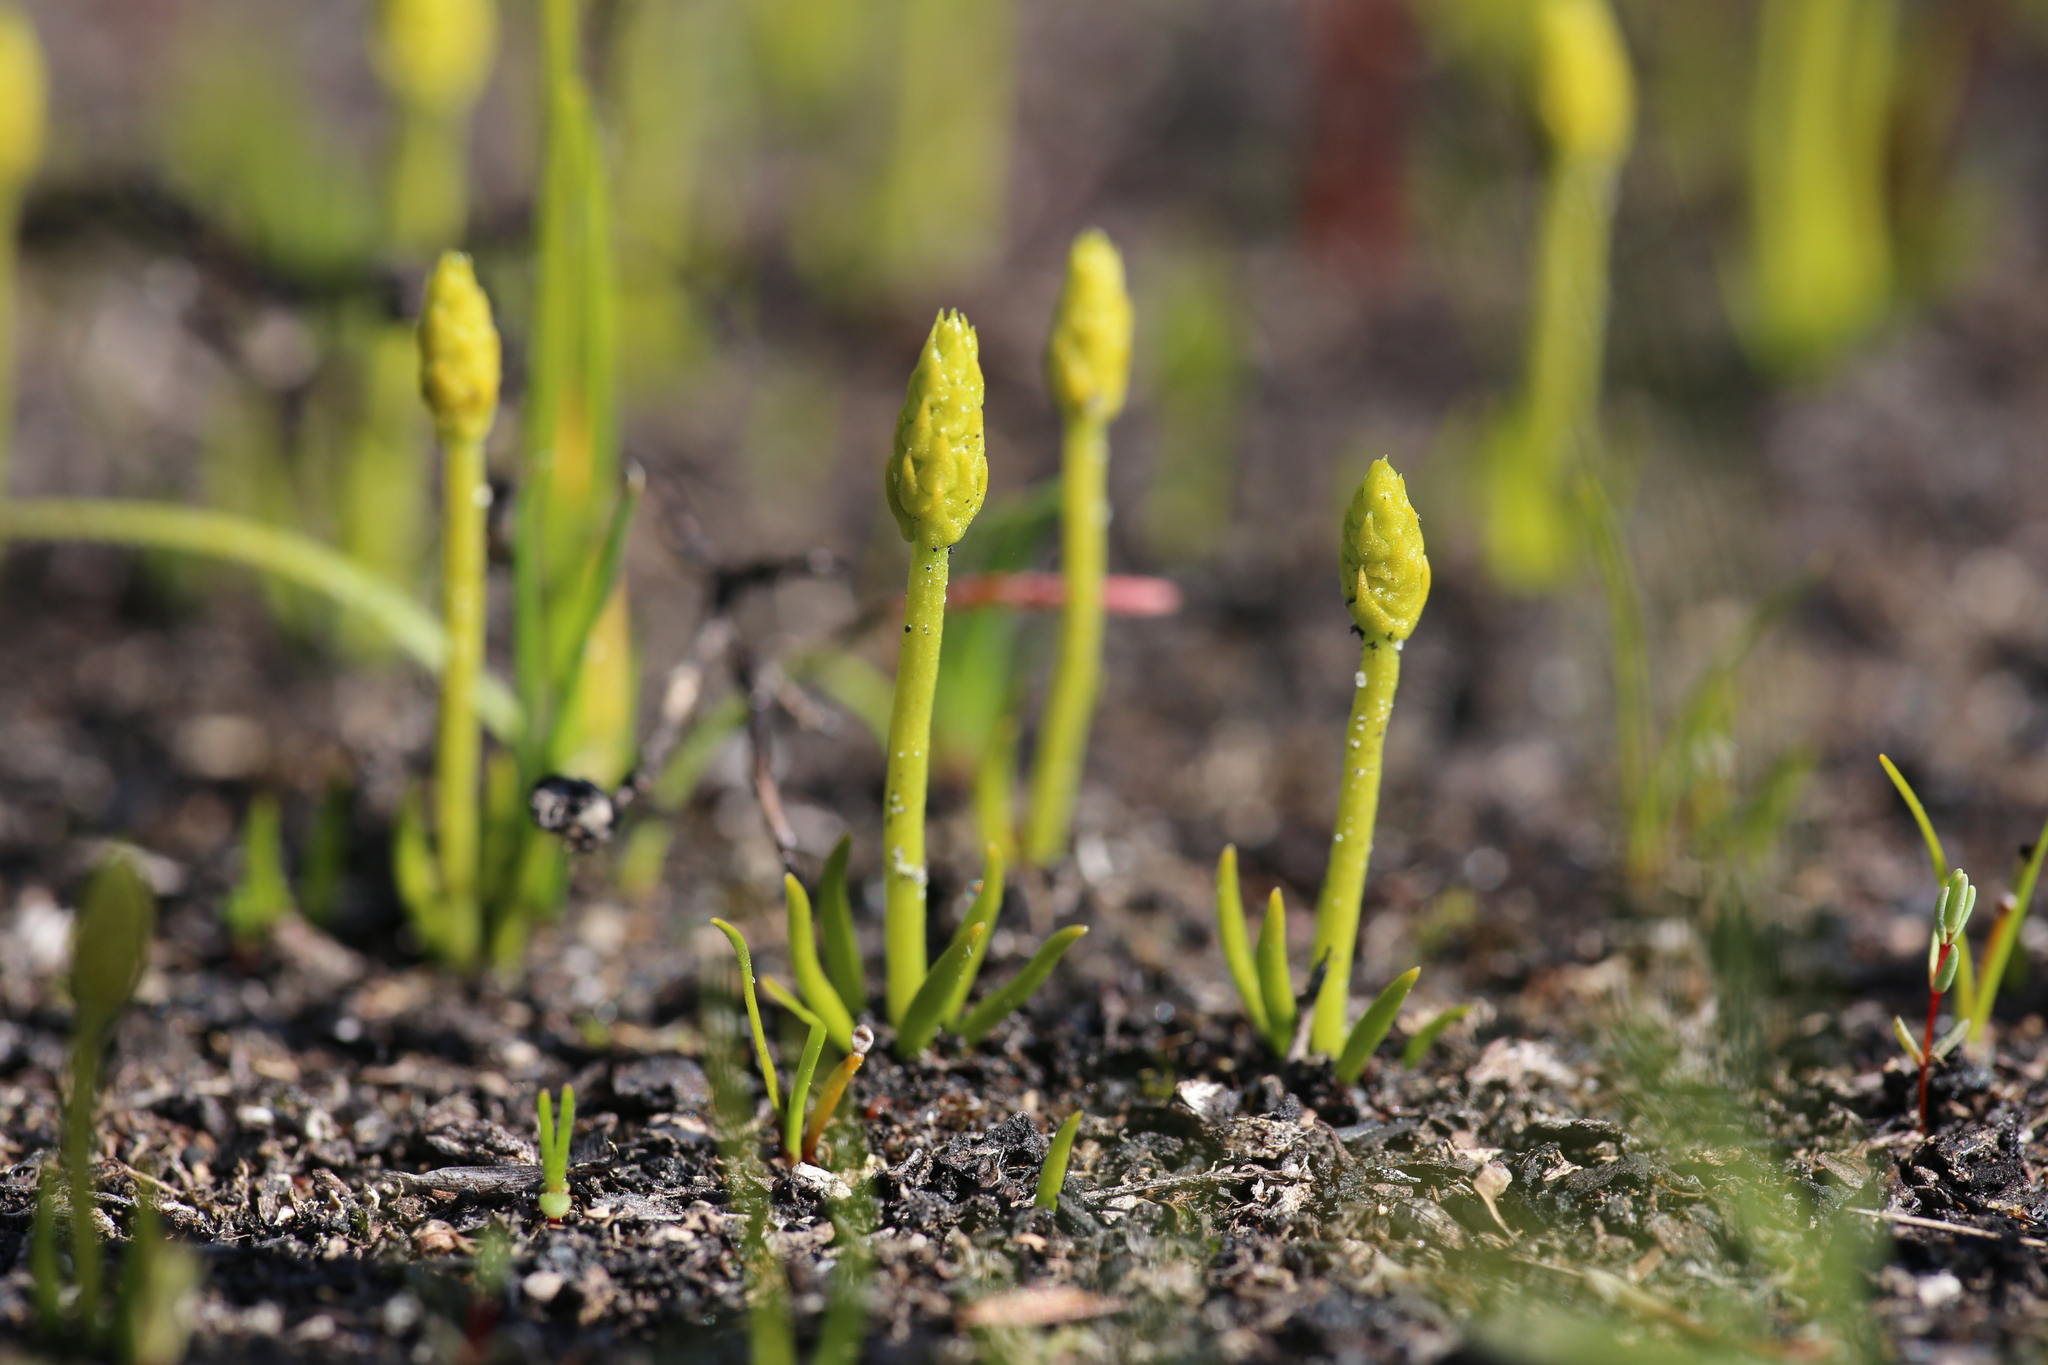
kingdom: Plantae
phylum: Tracheophyta
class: Lycopodiopsida
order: Lycopodiales
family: Lycopodiaceae
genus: Phylloglossum
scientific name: Phylloglossum drummondii
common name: Pigmy-club-moss
